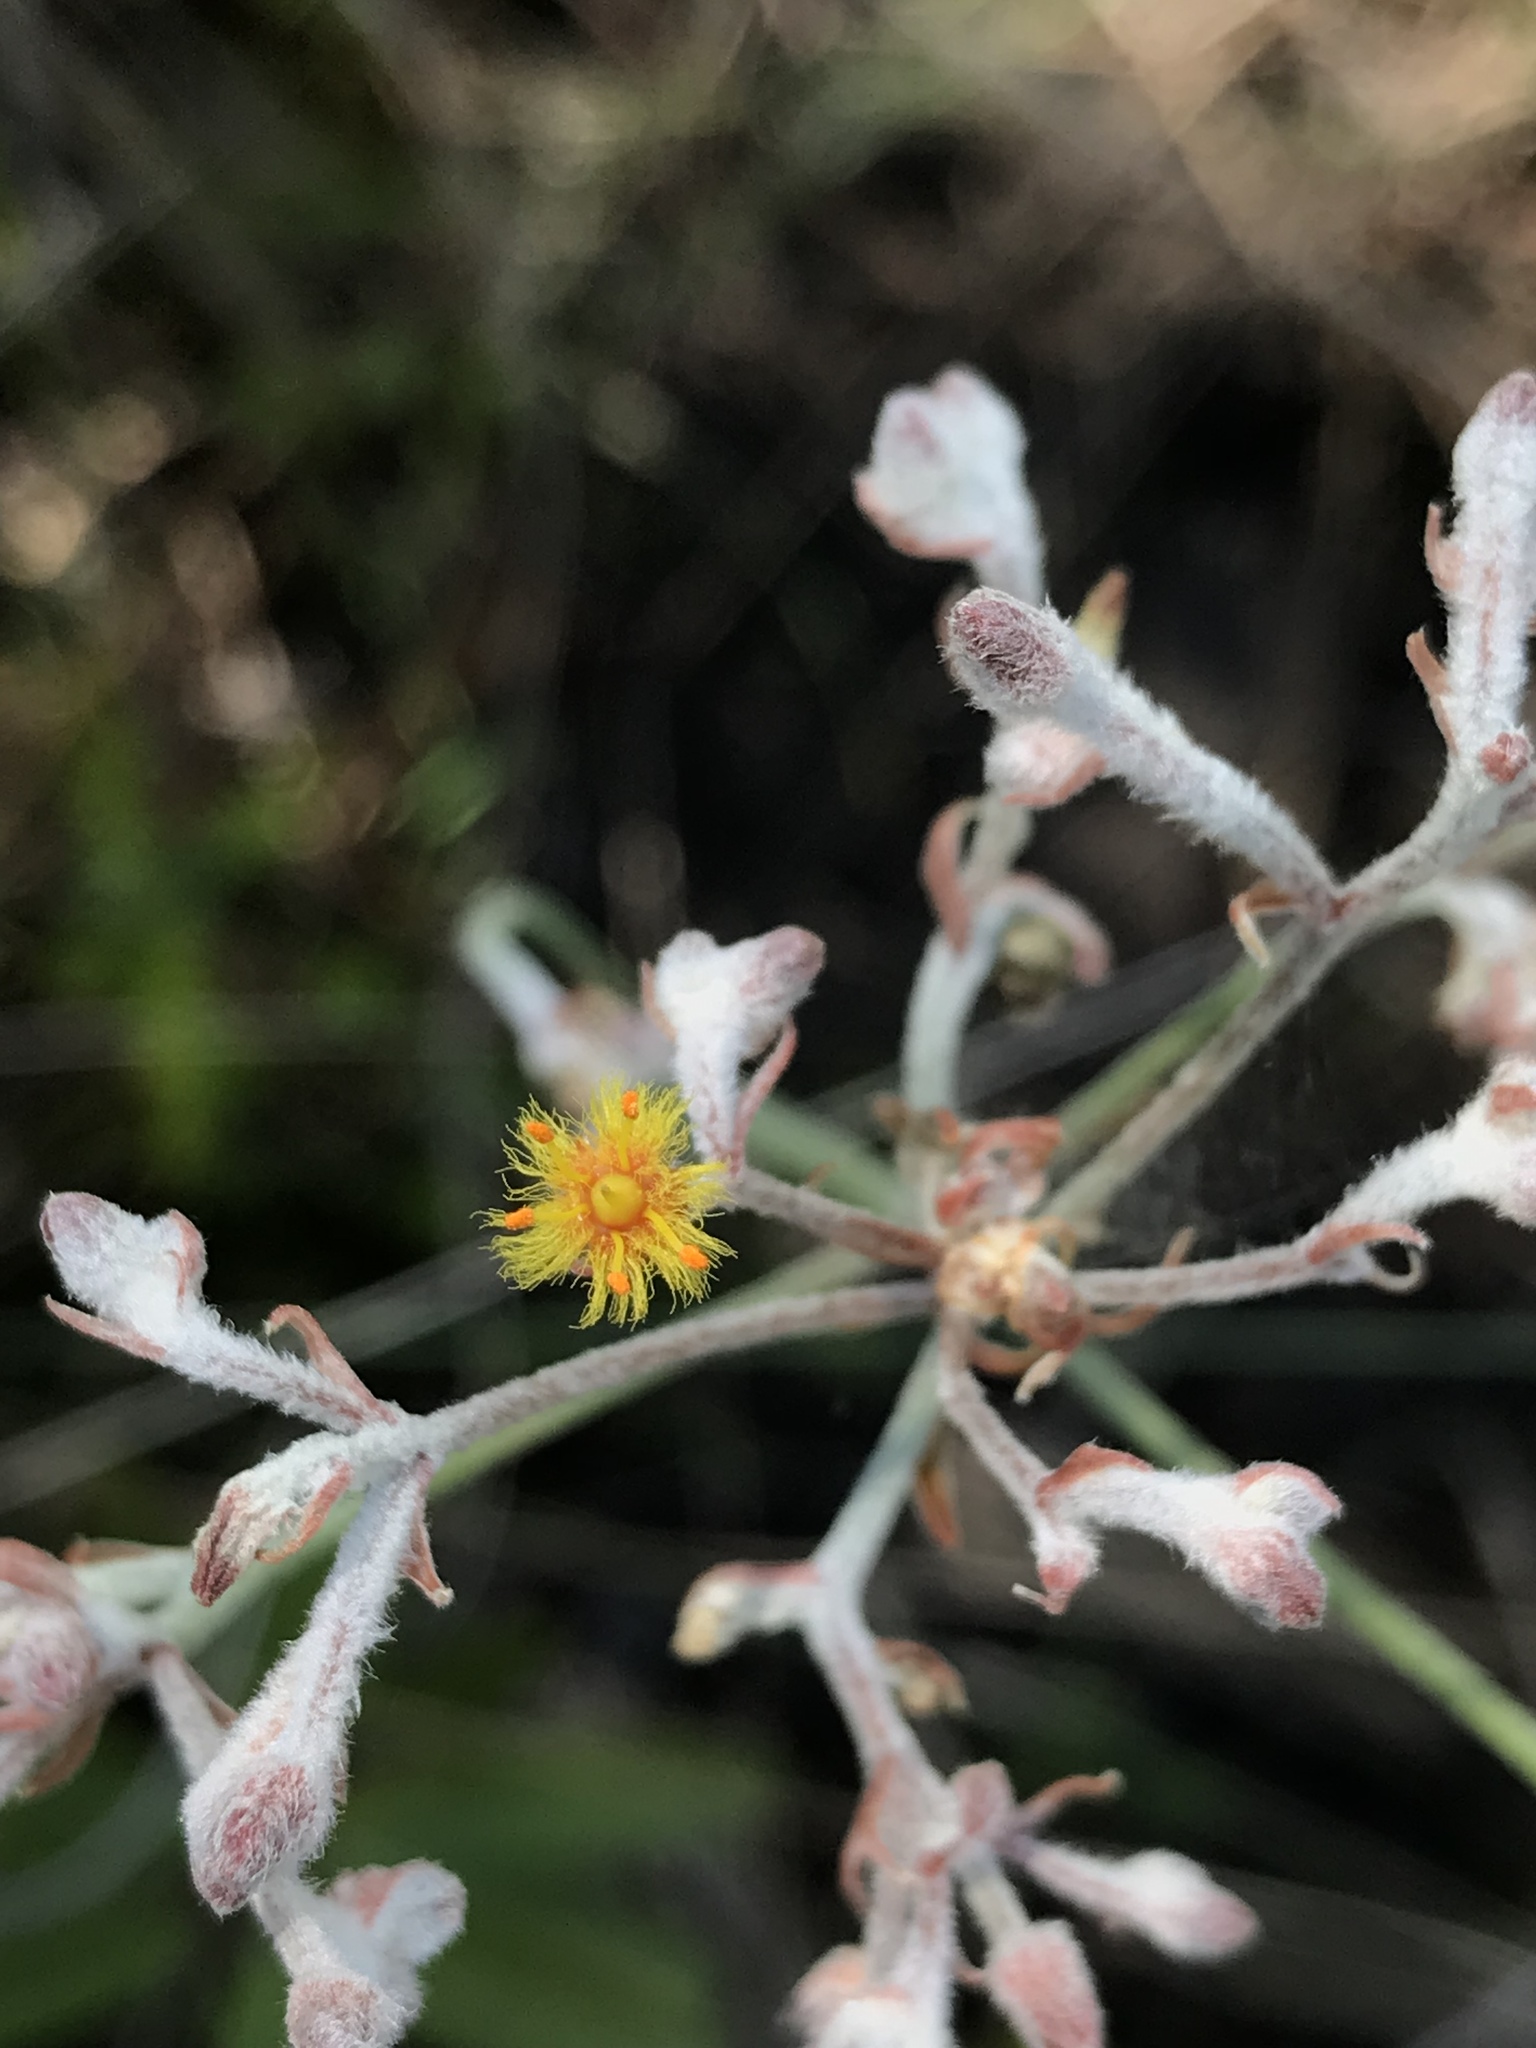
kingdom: Plantae
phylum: Tracheophyta
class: Liliopsida
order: Dioscoreales
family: Nartheciaceae
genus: Lophiola
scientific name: Lophiola aurea
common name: Golden-crest
